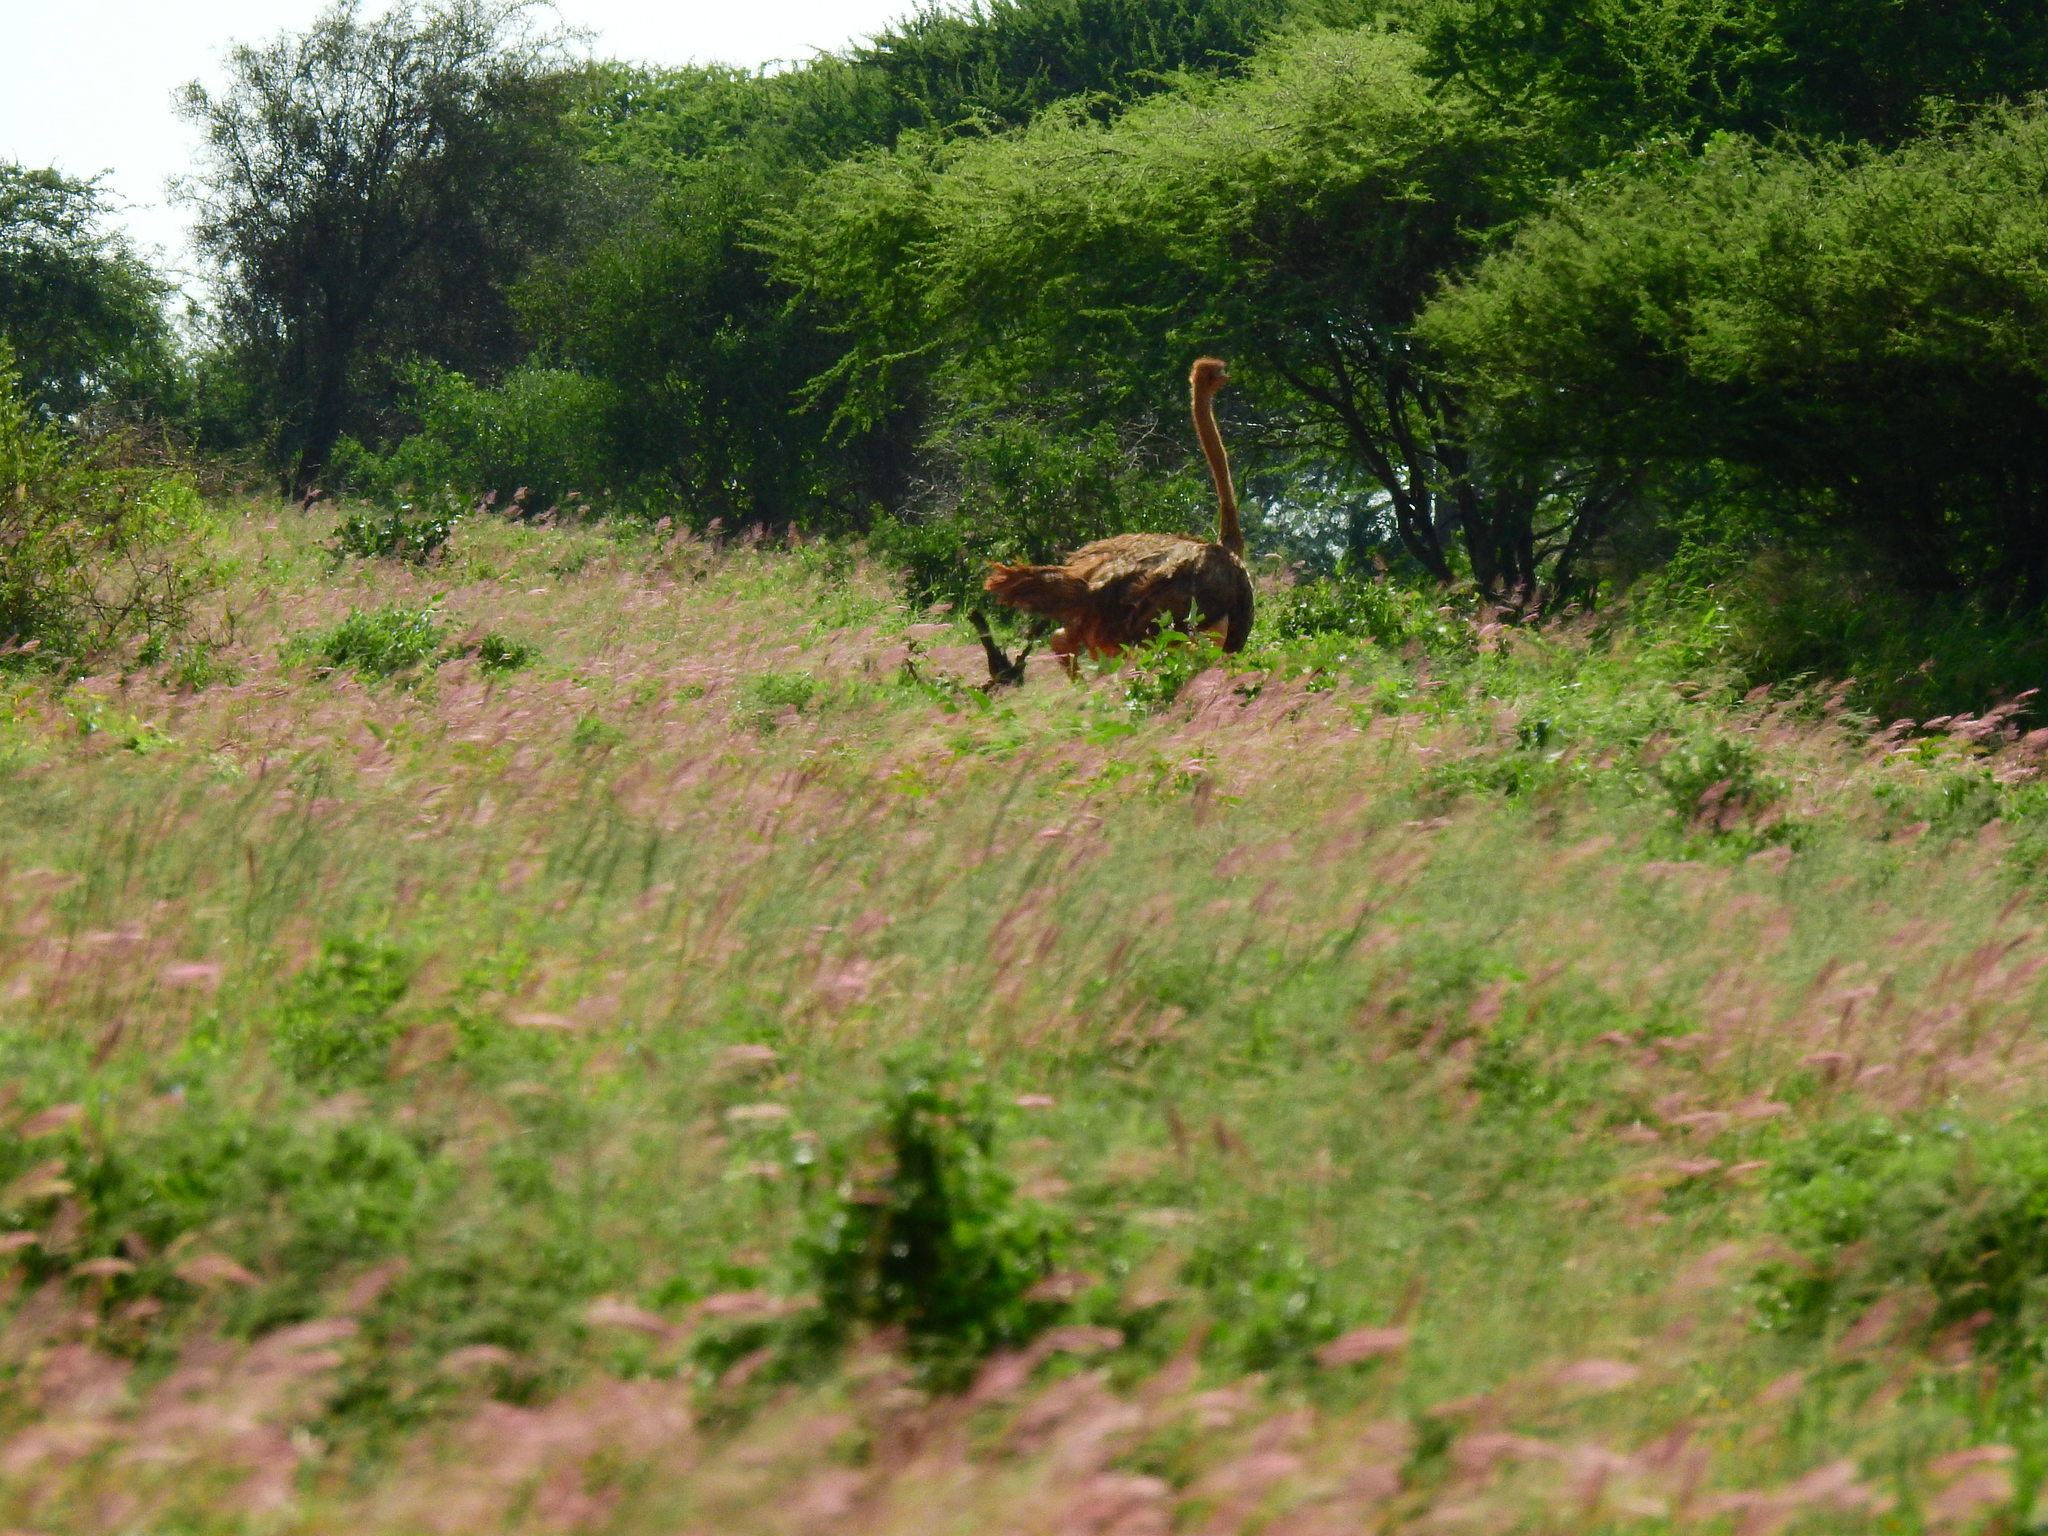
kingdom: Animalia
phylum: Chordata
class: Aves
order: Struthioniformes
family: Struthionidae
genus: Struthio
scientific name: Struthio camelus
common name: Common ostrich
